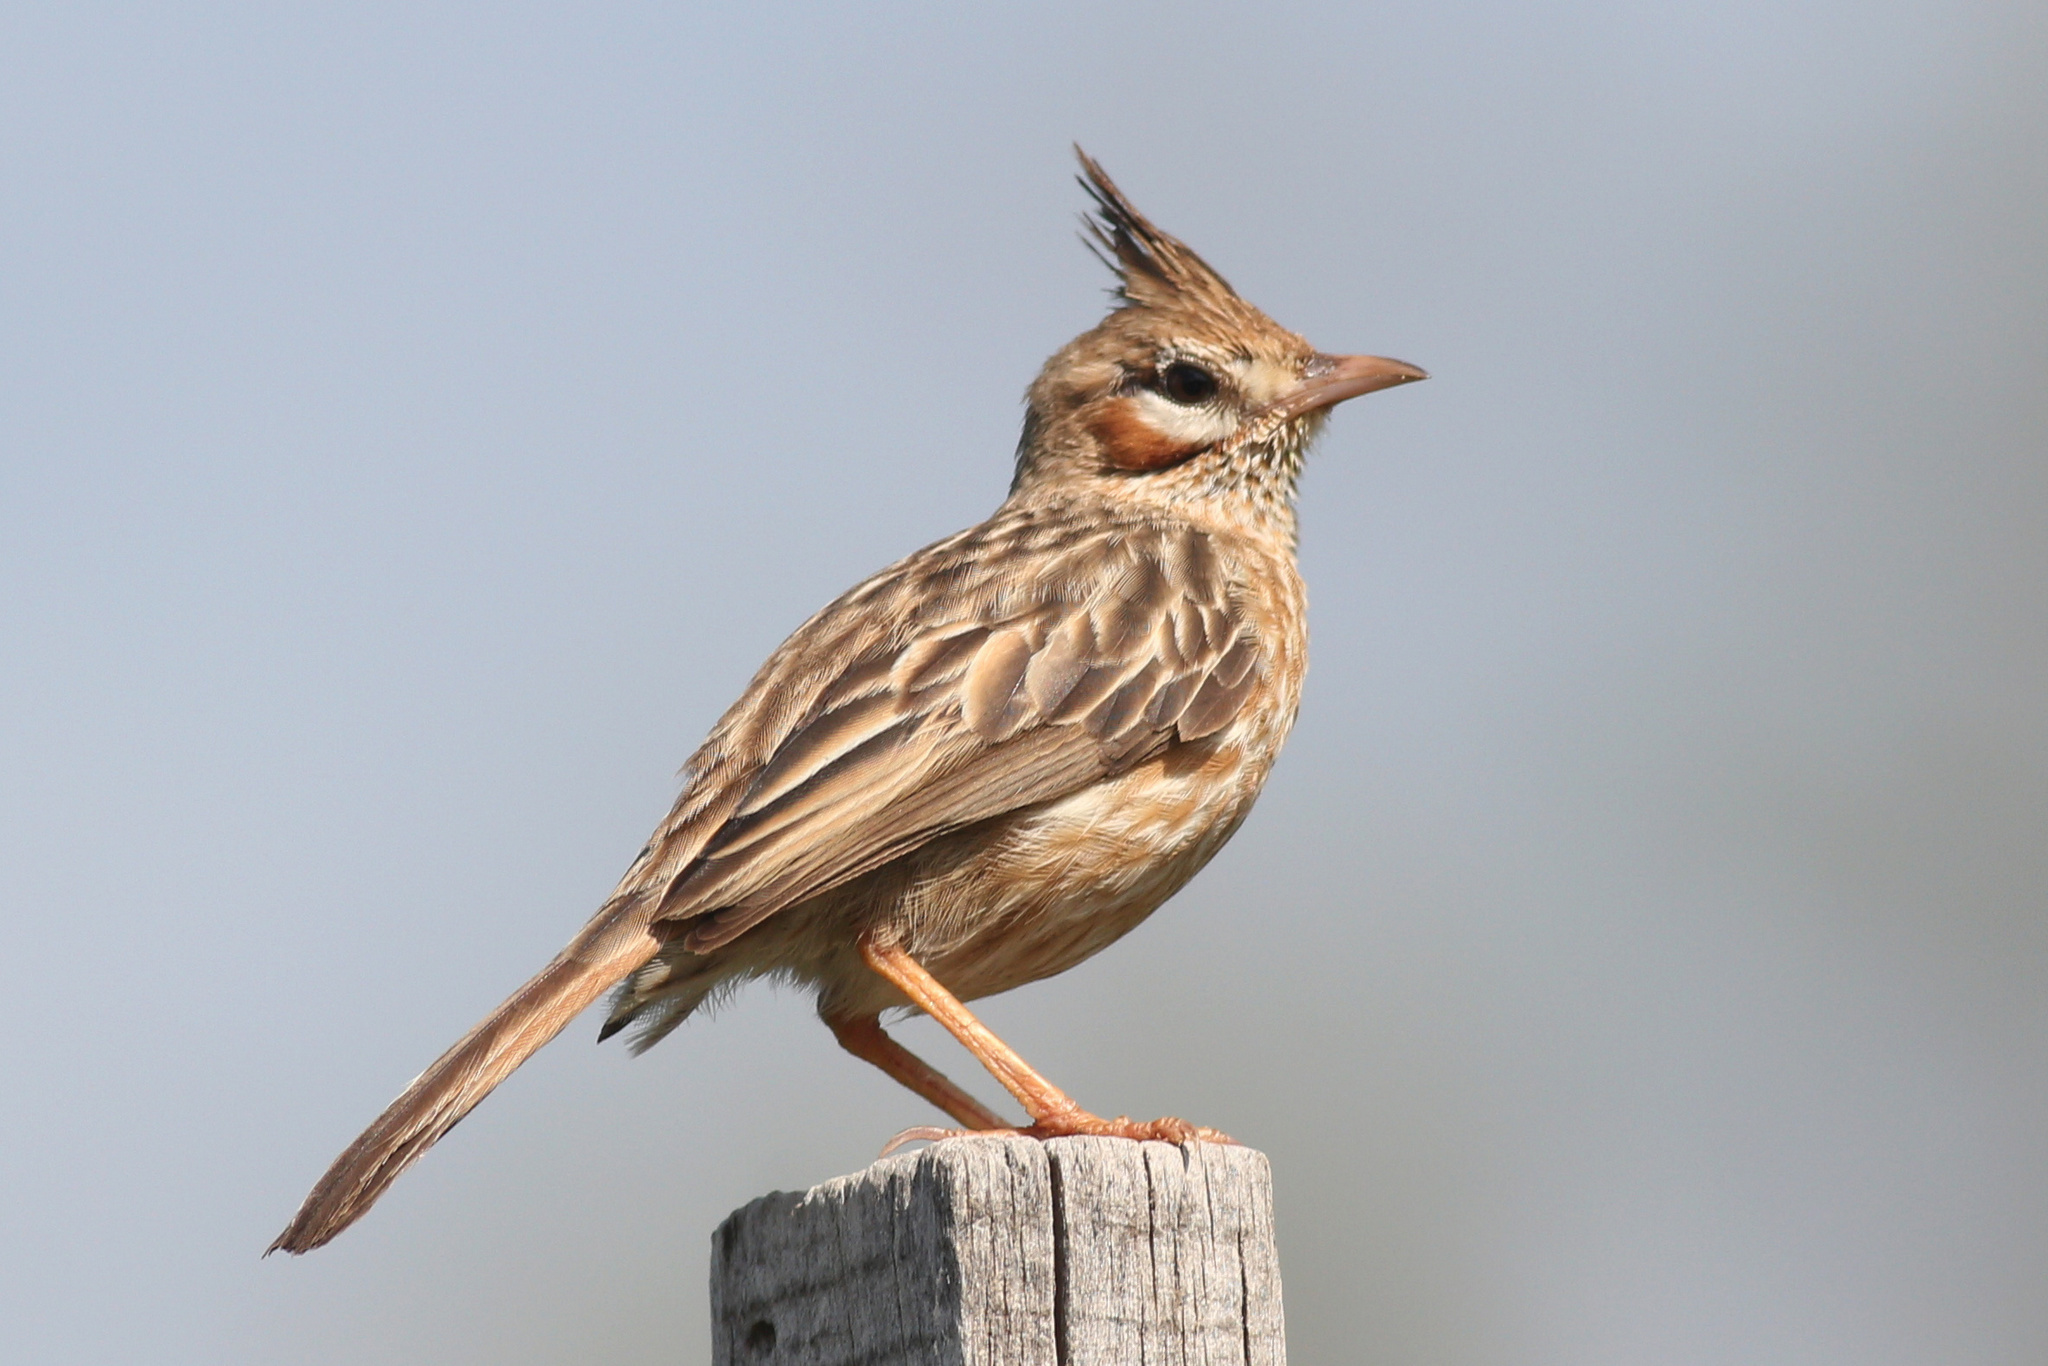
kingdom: Animalia
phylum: Chordata
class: Aves
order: Passeriformes
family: Furnariidae
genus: Coryphistera
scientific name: Coryphistera alaudina
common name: Lark-like brushrunner
